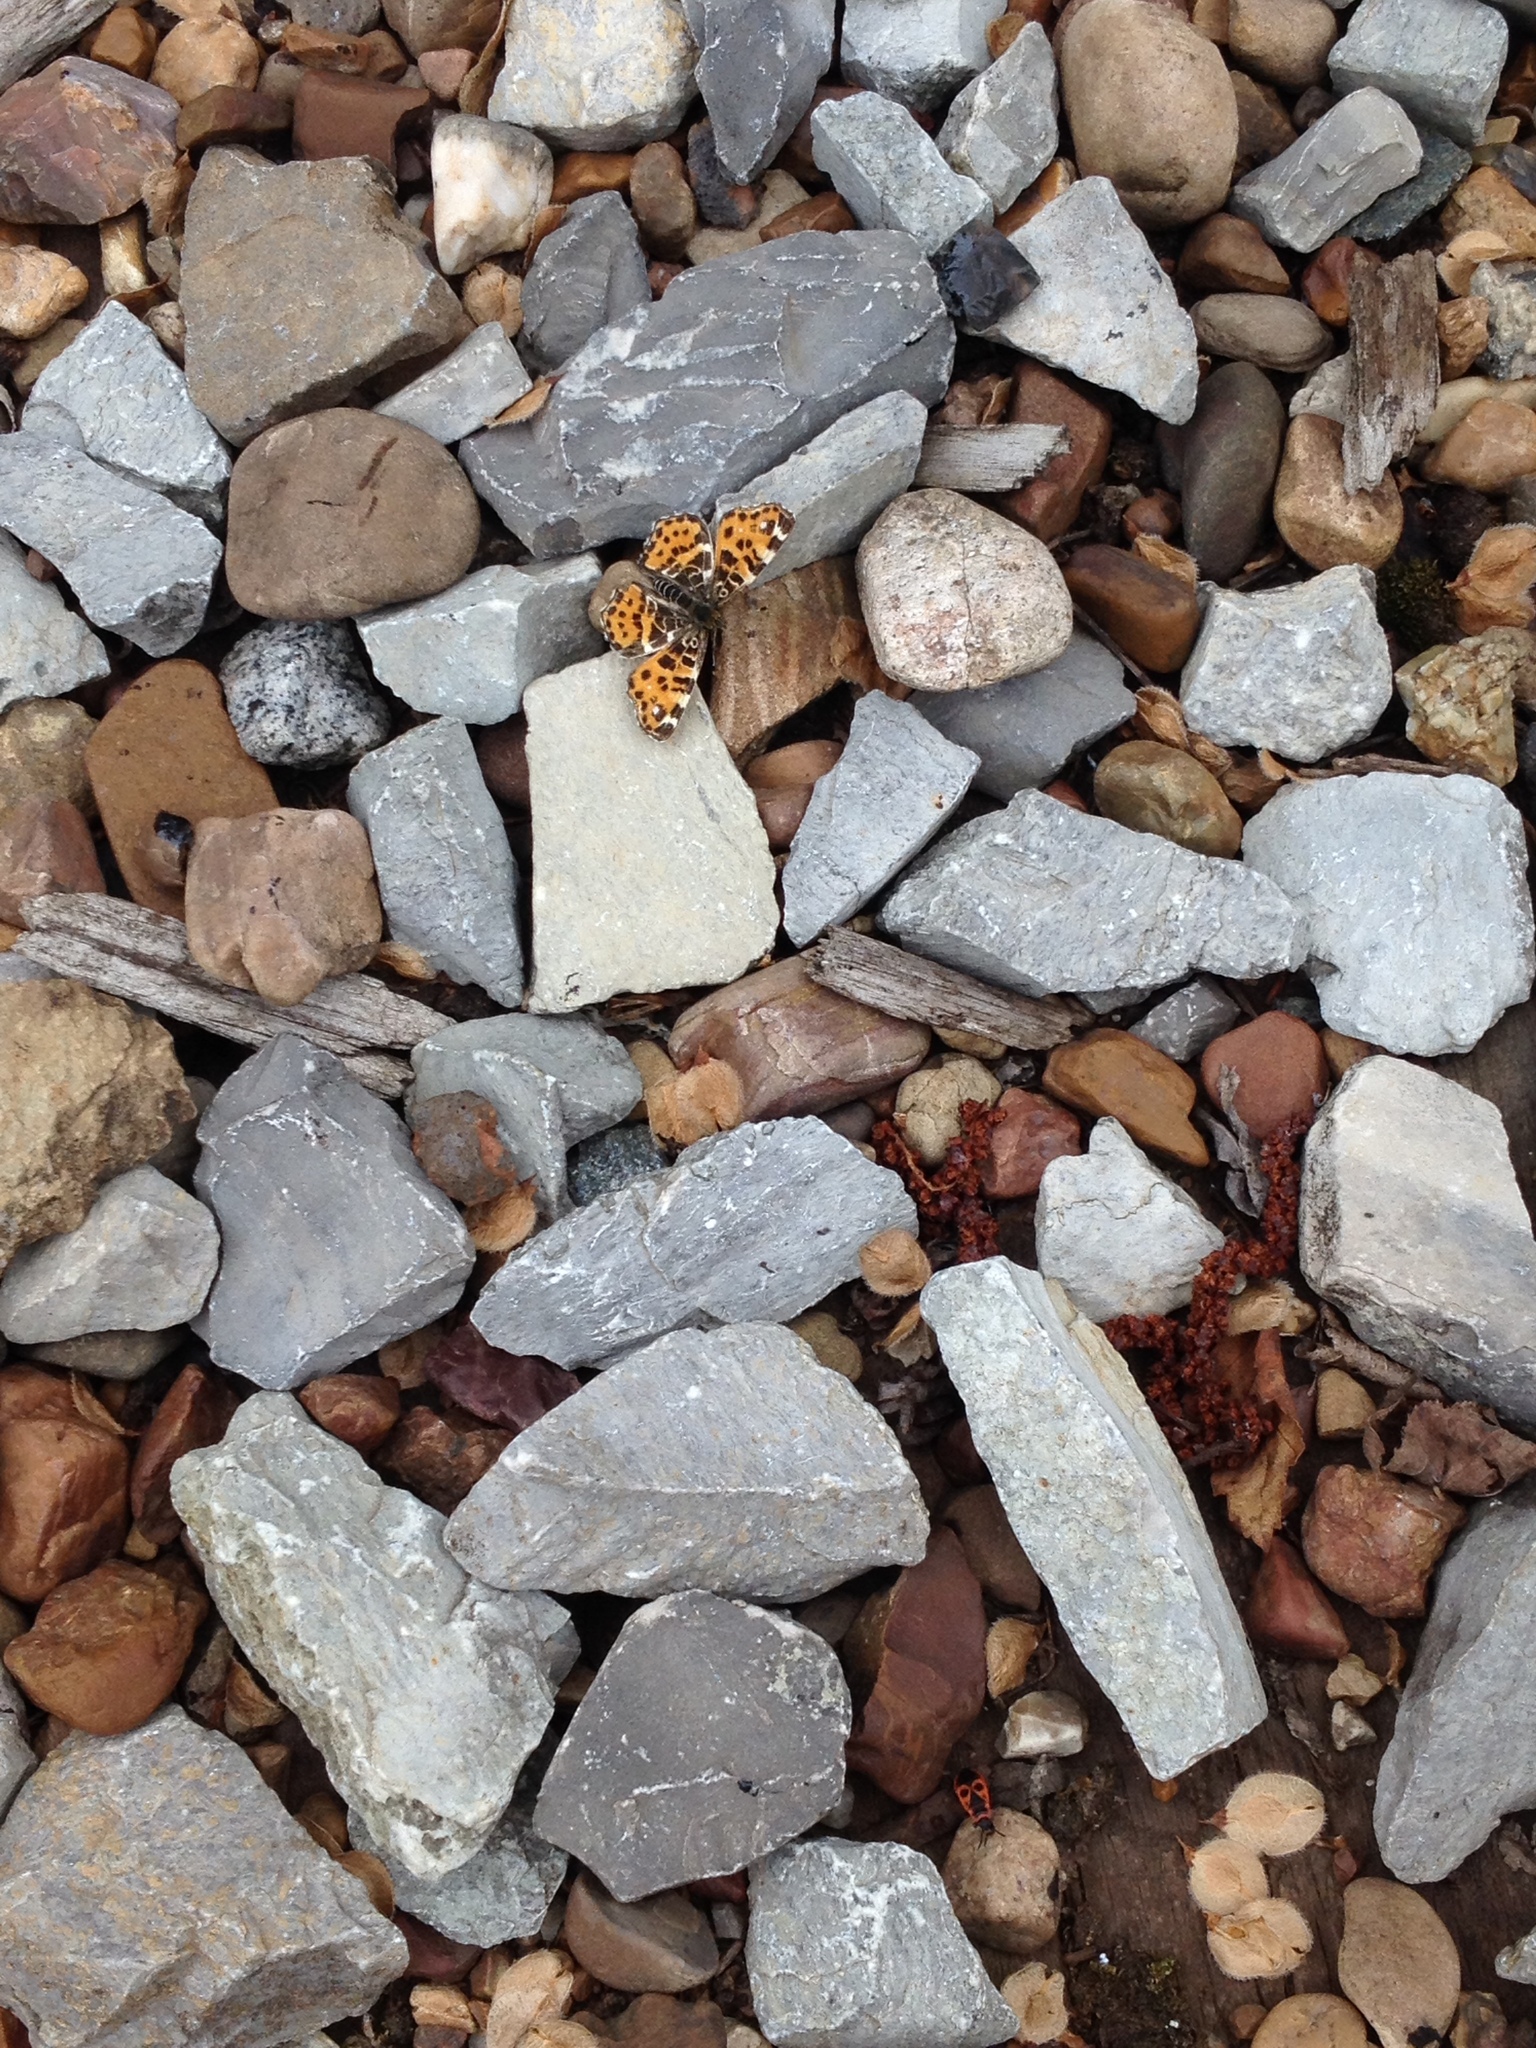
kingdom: Animalia
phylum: Arthropoda
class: Insecta
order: Lepidoptera
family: Nymphalidae
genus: Araschnia
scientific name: Araschnia levana
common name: Map butterfly
